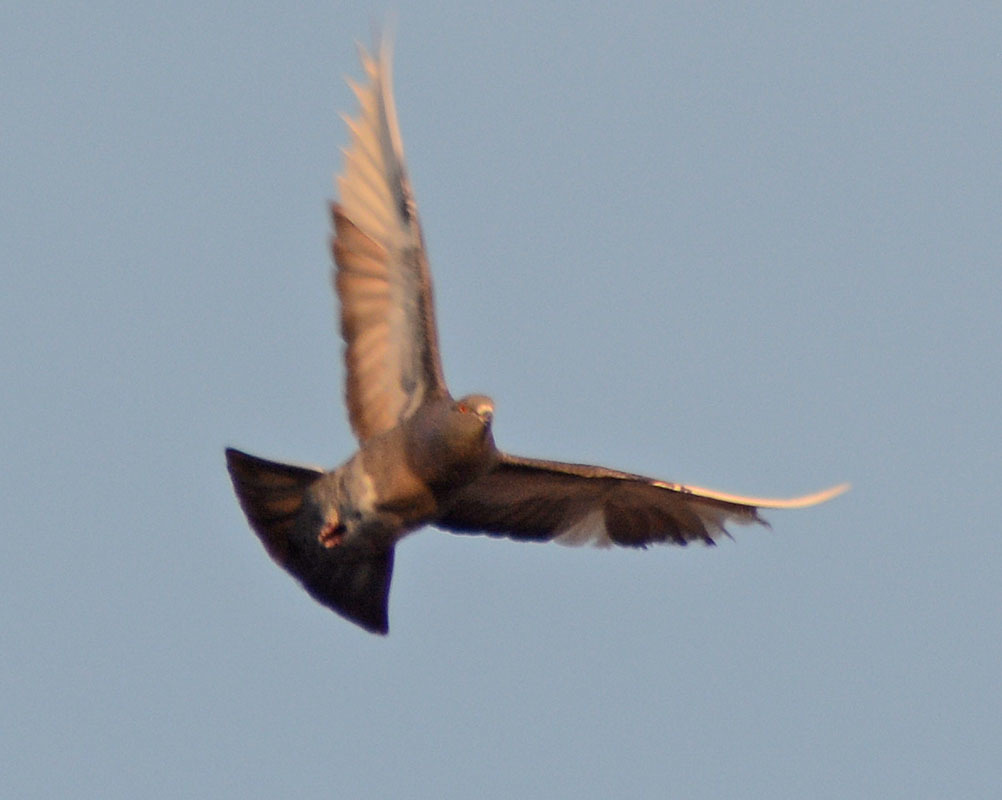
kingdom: Animalia
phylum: Chordata
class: Aves
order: Columbiformes
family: Columbidae
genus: Columba
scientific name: Columba livia
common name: Rock pigeon
